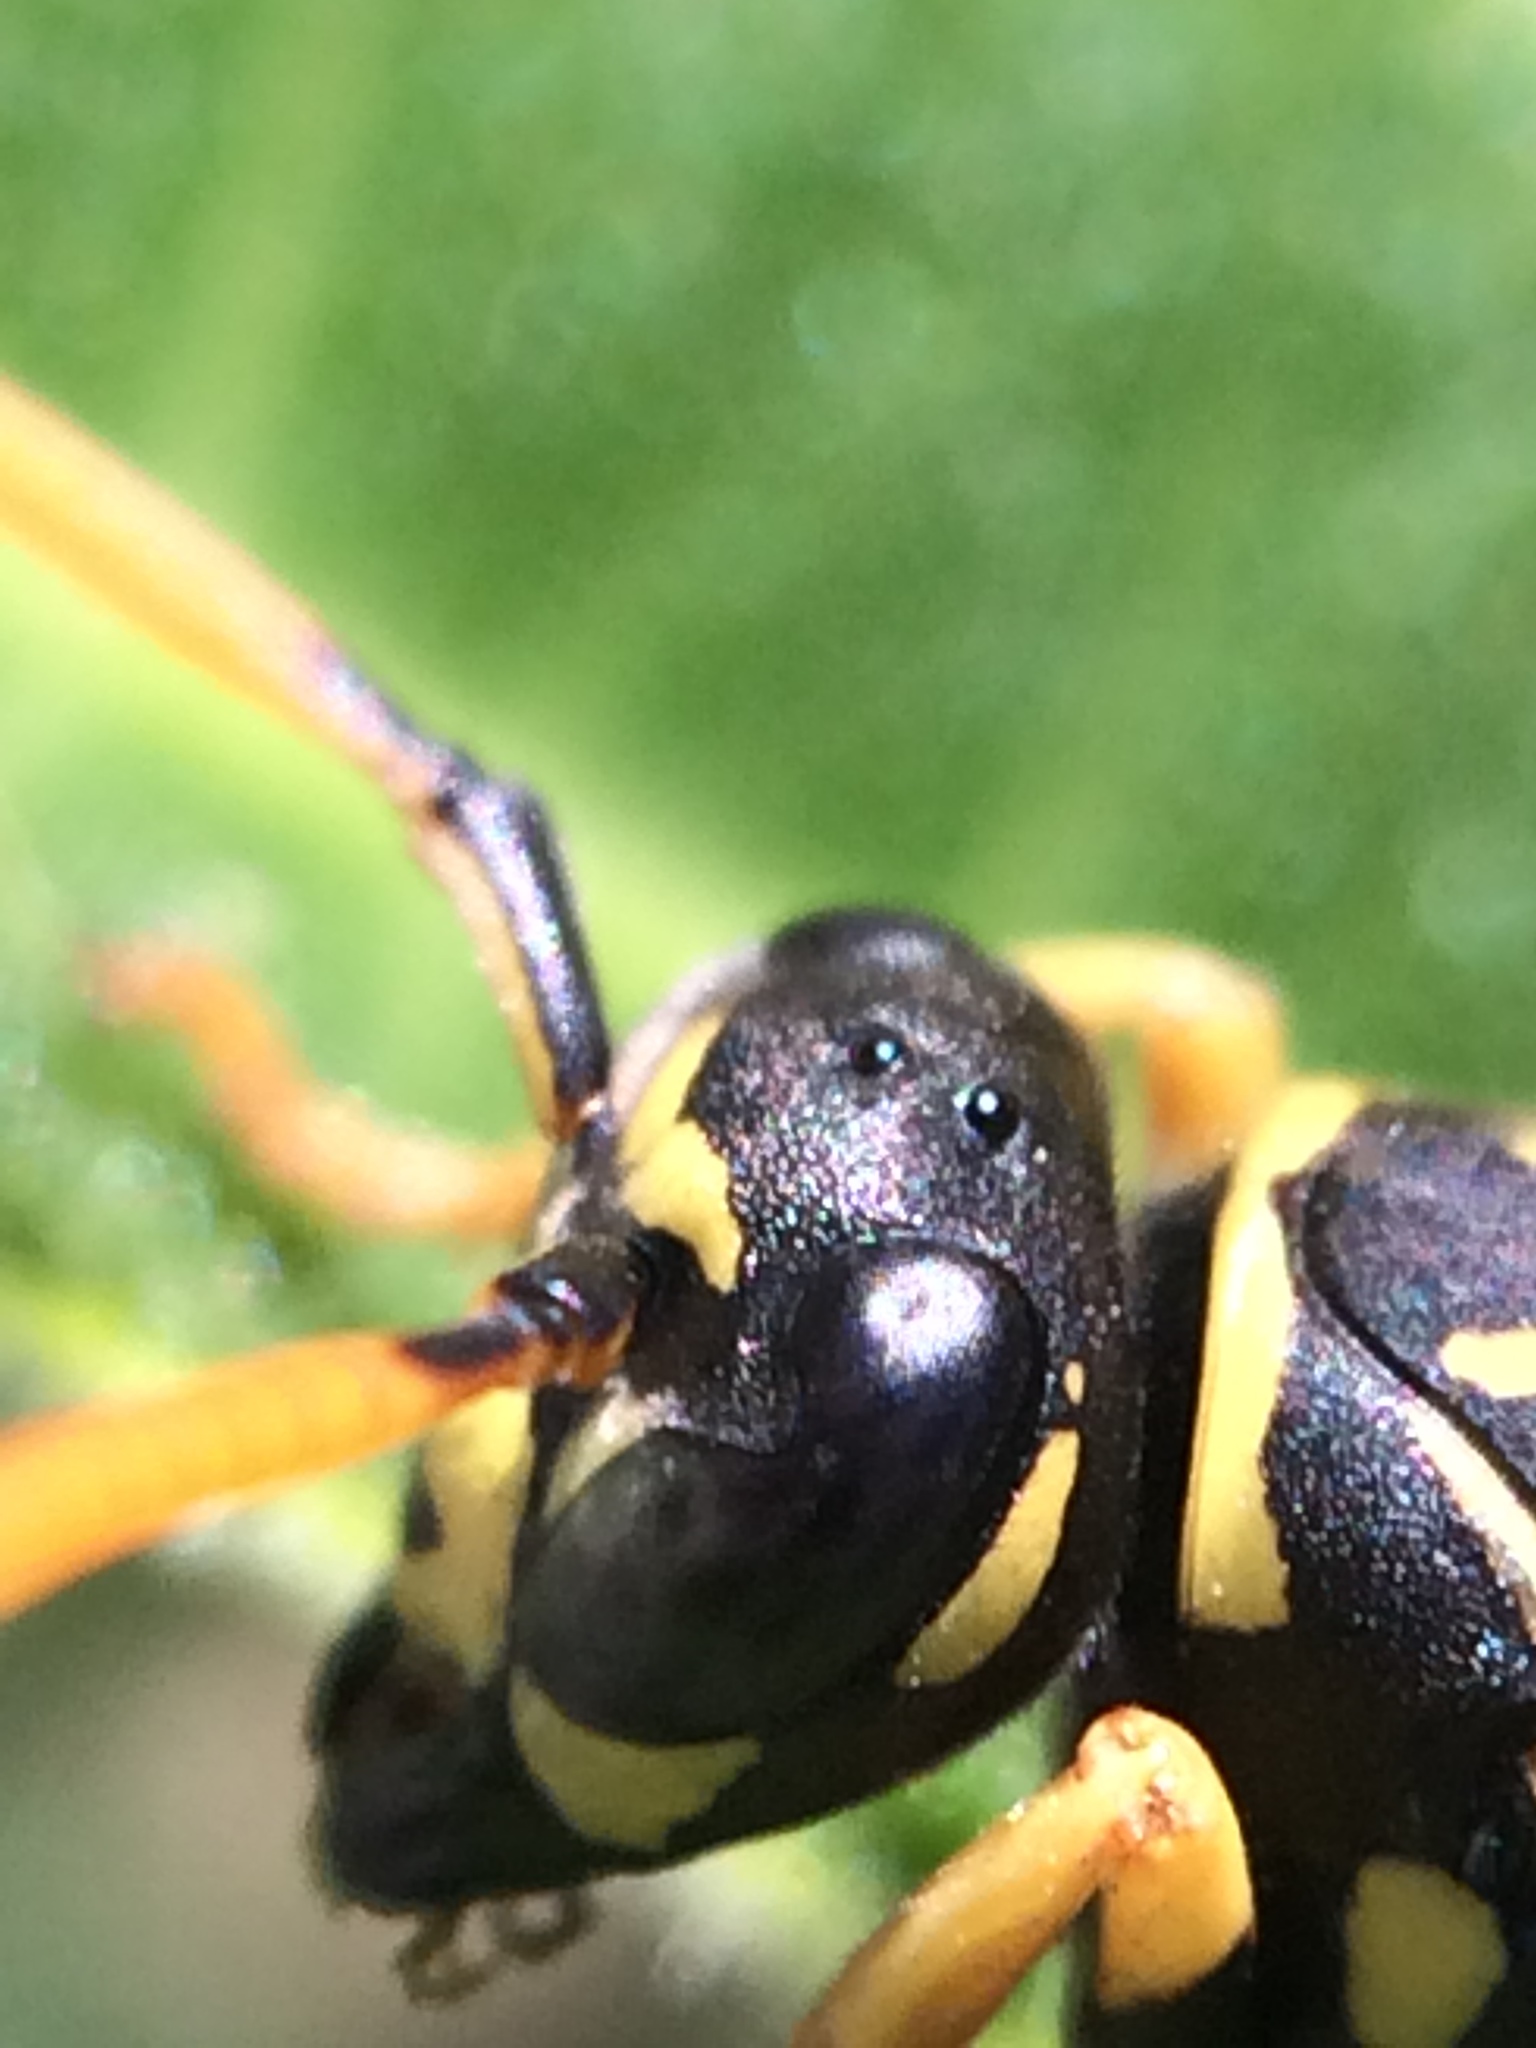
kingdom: Animalia
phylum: Arthropoda
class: Insecta
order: Hymenoptera
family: Eumenidae
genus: Polistes
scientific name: Polistes dominula
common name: Paper wasp
